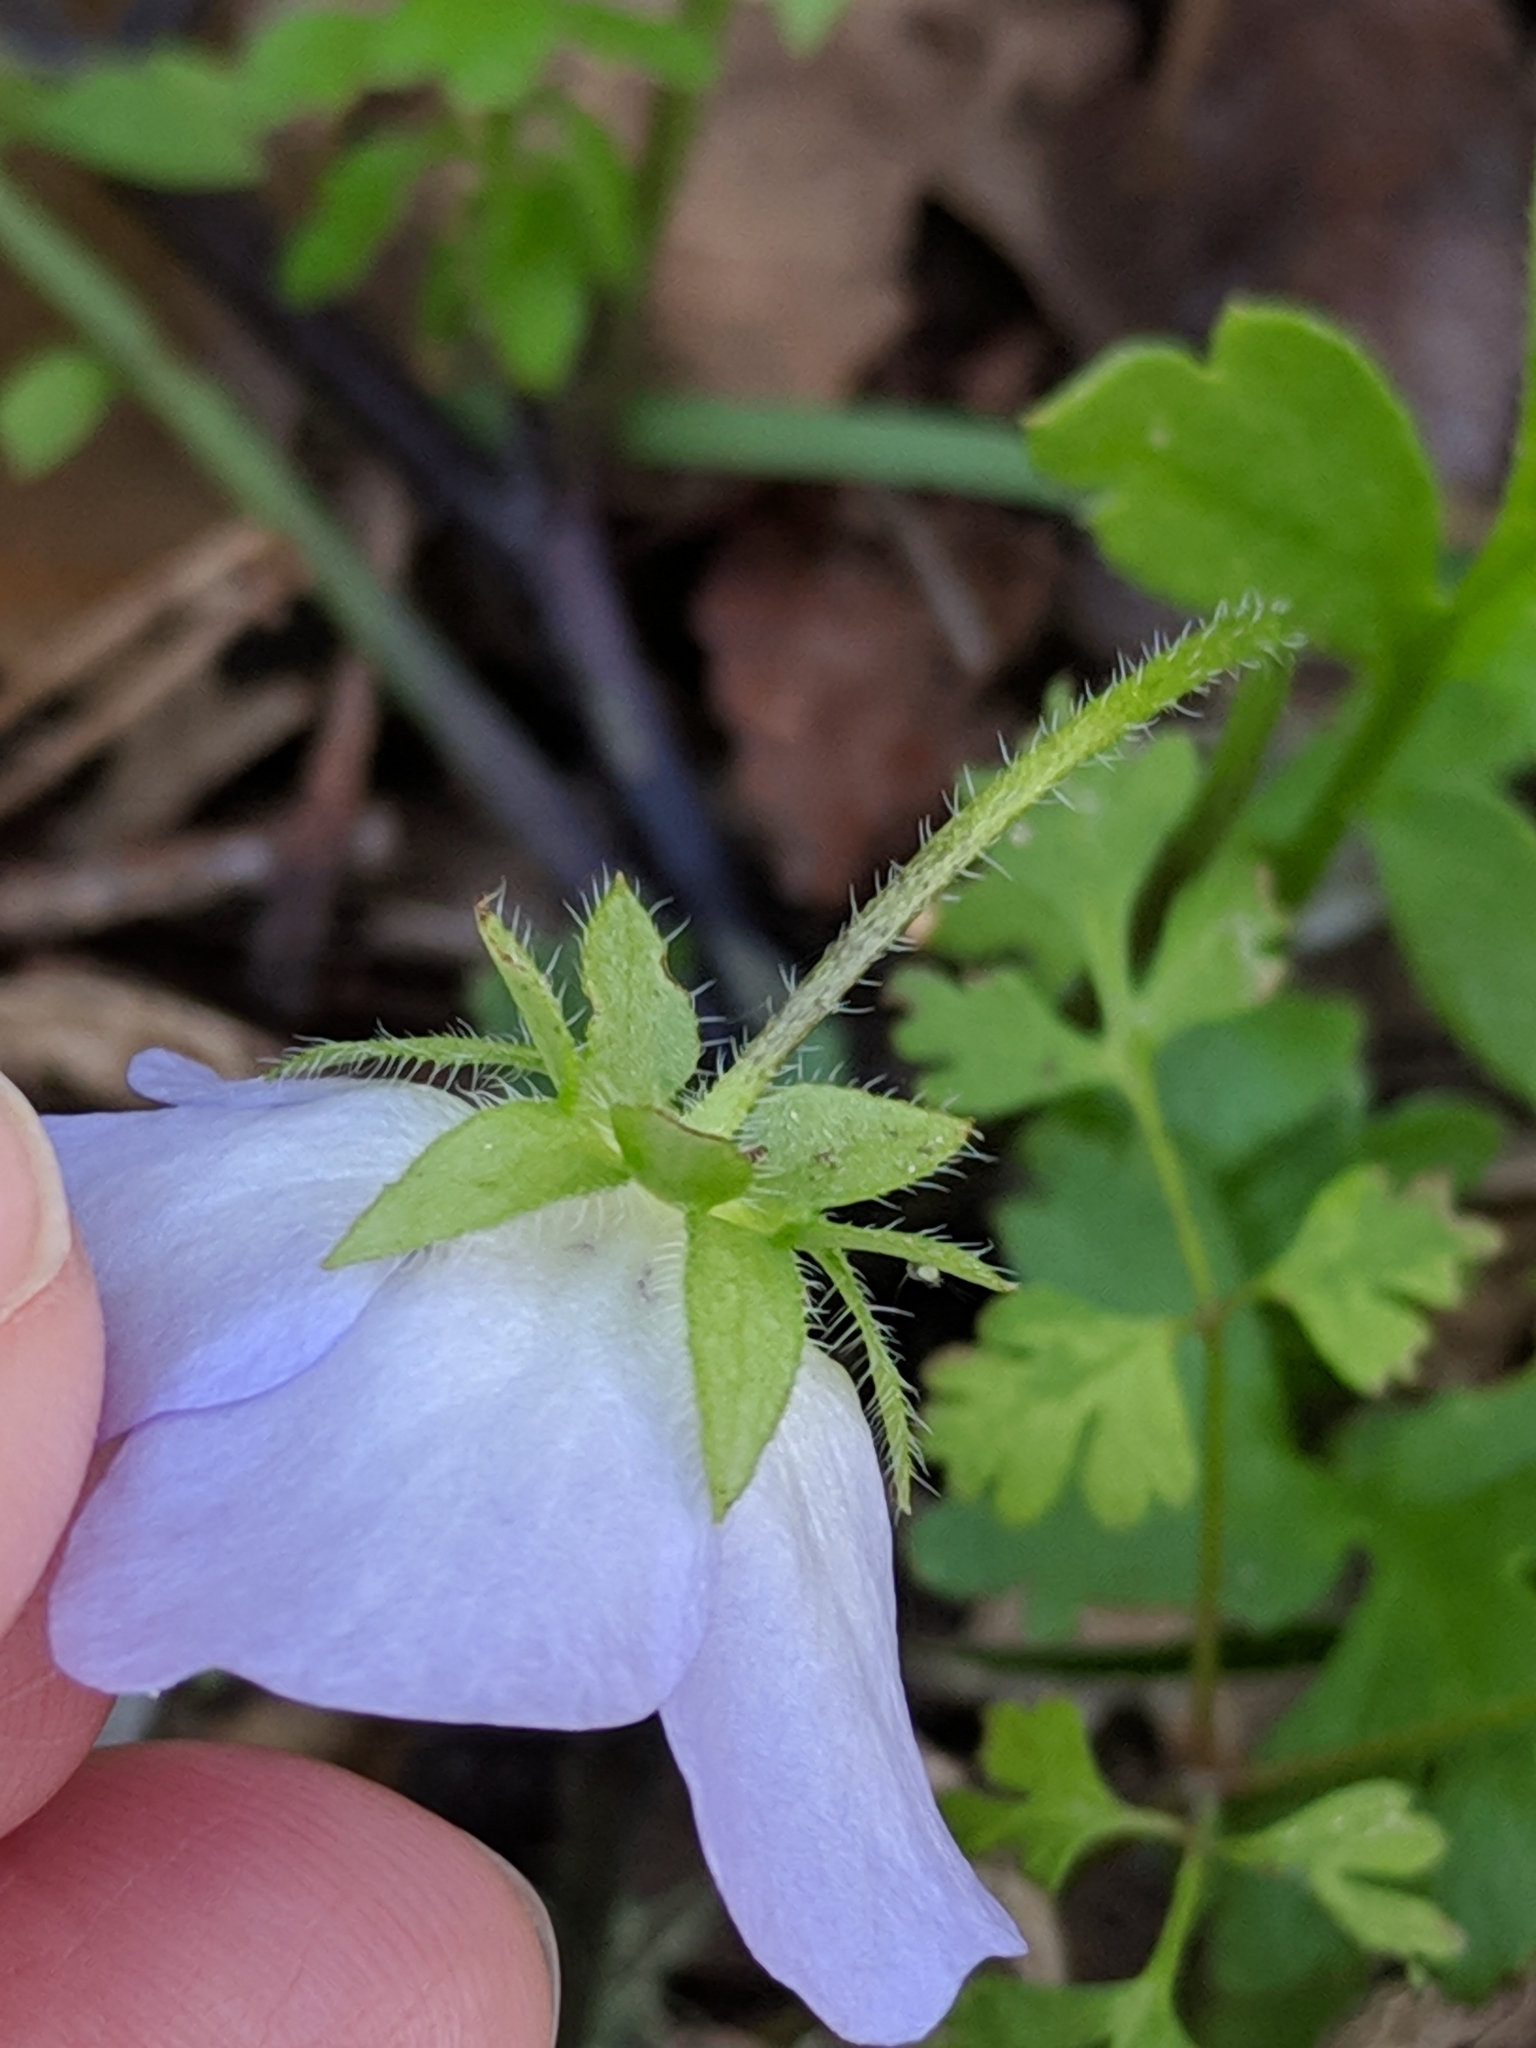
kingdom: Plantae
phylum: Tracheophyta
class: Magnoliopsida
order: Boraginales
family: Hydrophyllaceae
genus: Nemophila
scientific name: Nemophila phacelioides
